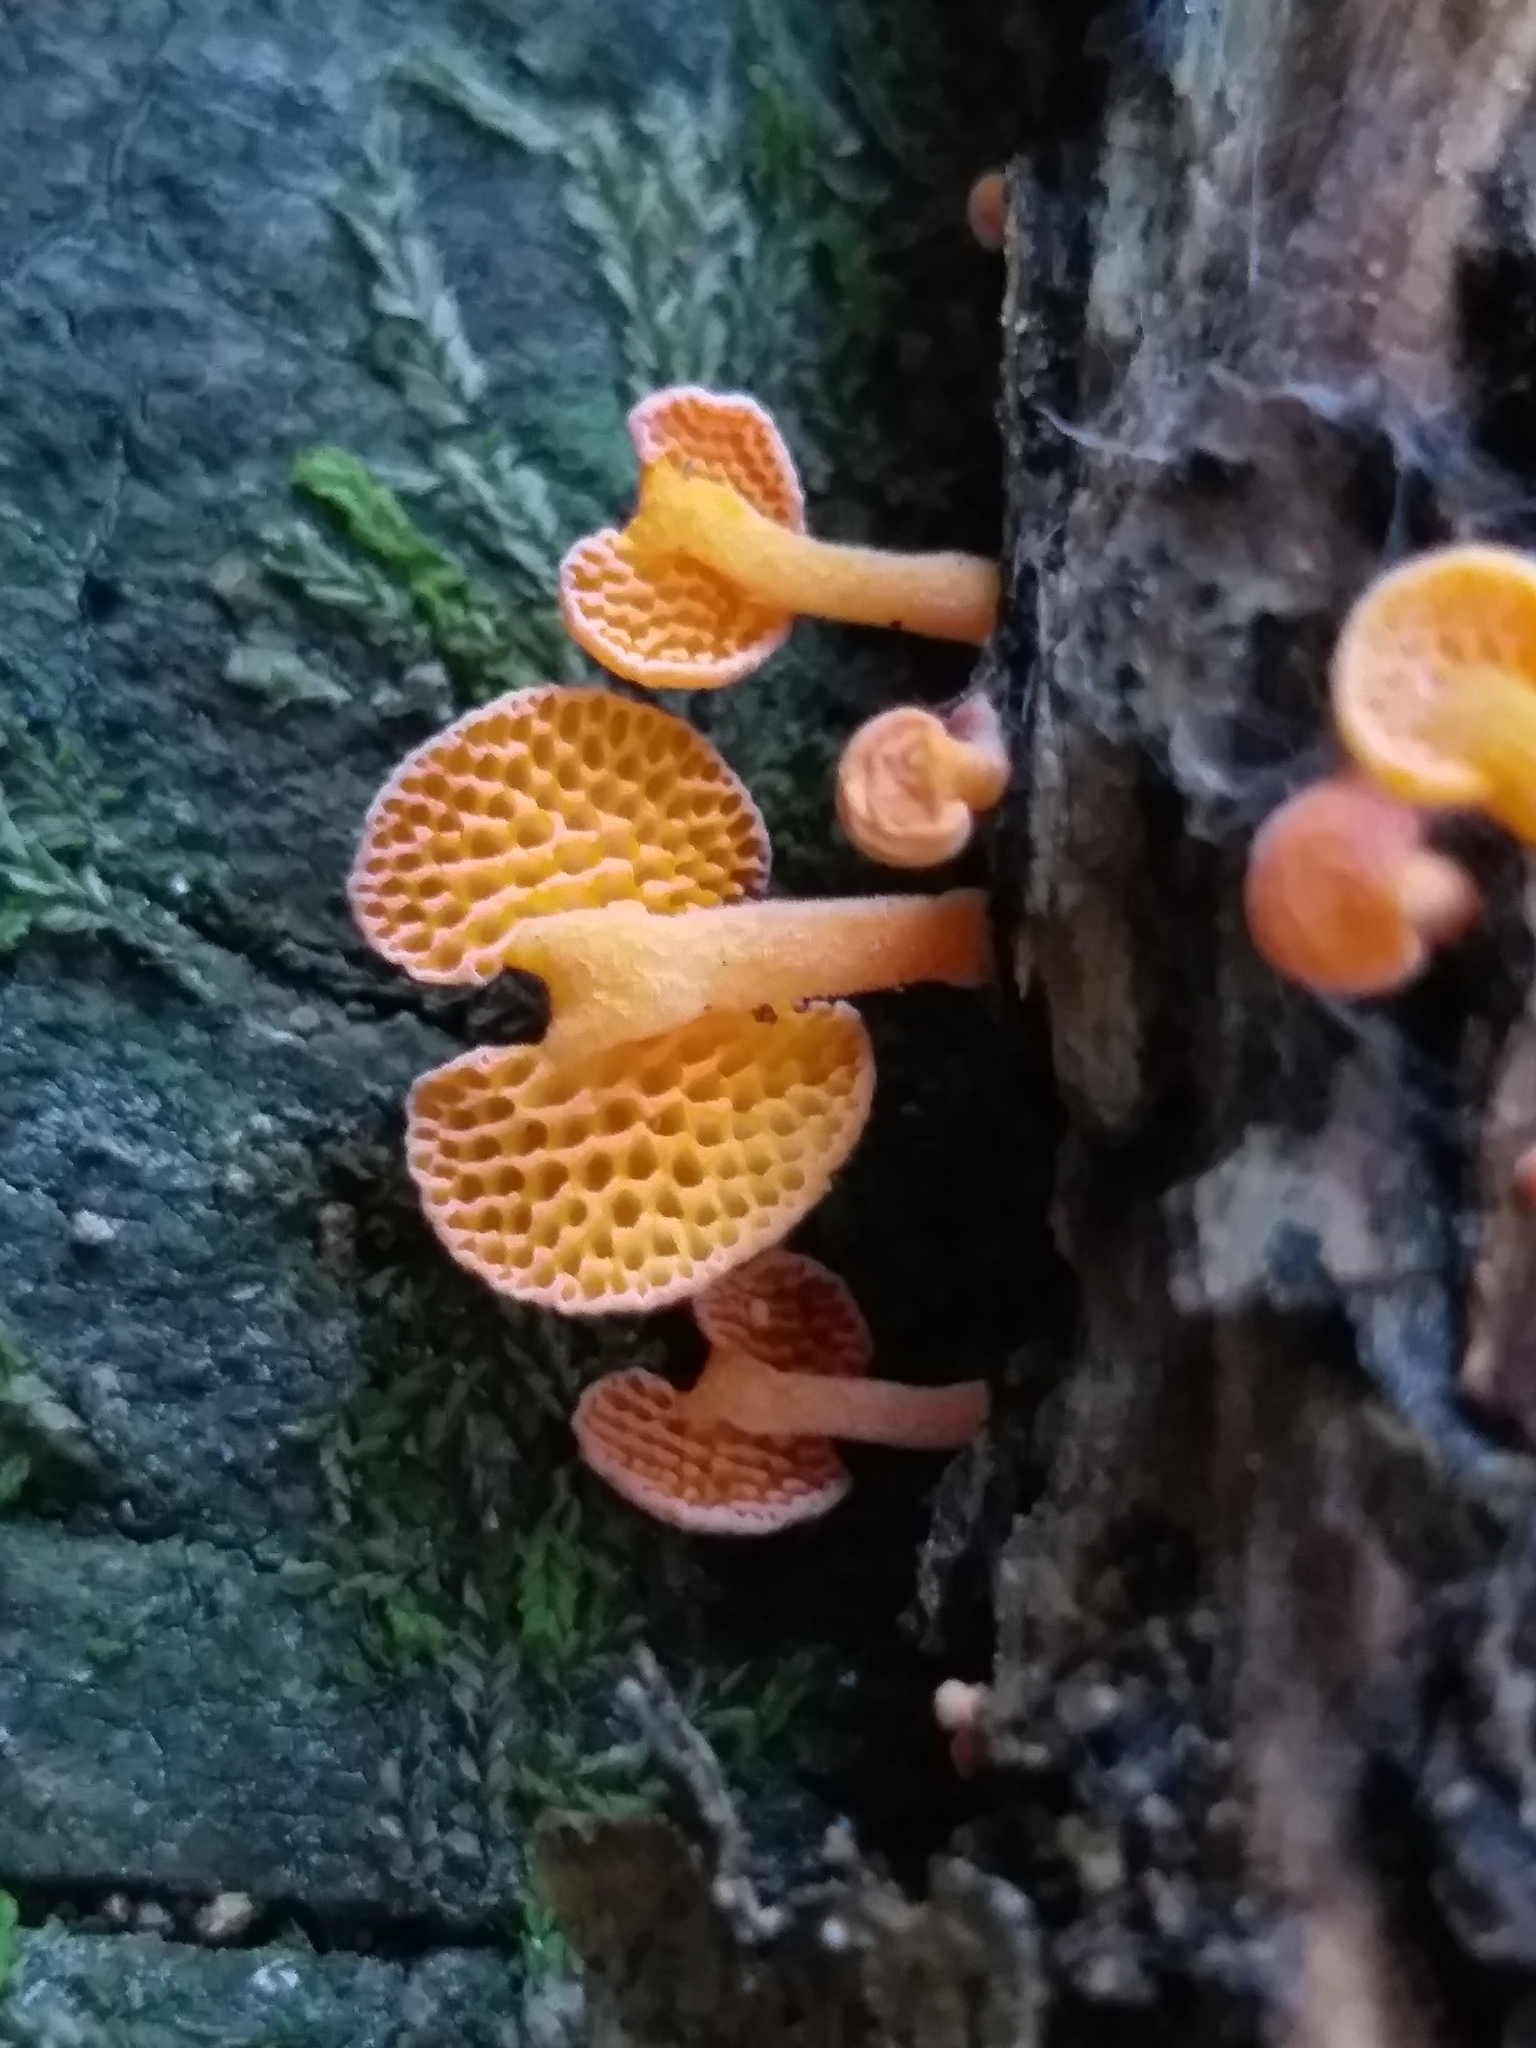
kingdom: Fungi
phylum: Basidiomycota
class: Agaricomycetes
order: Agaricales
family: Mycenaceae
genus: Favolaschia
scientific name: Favolaschia claudopus
